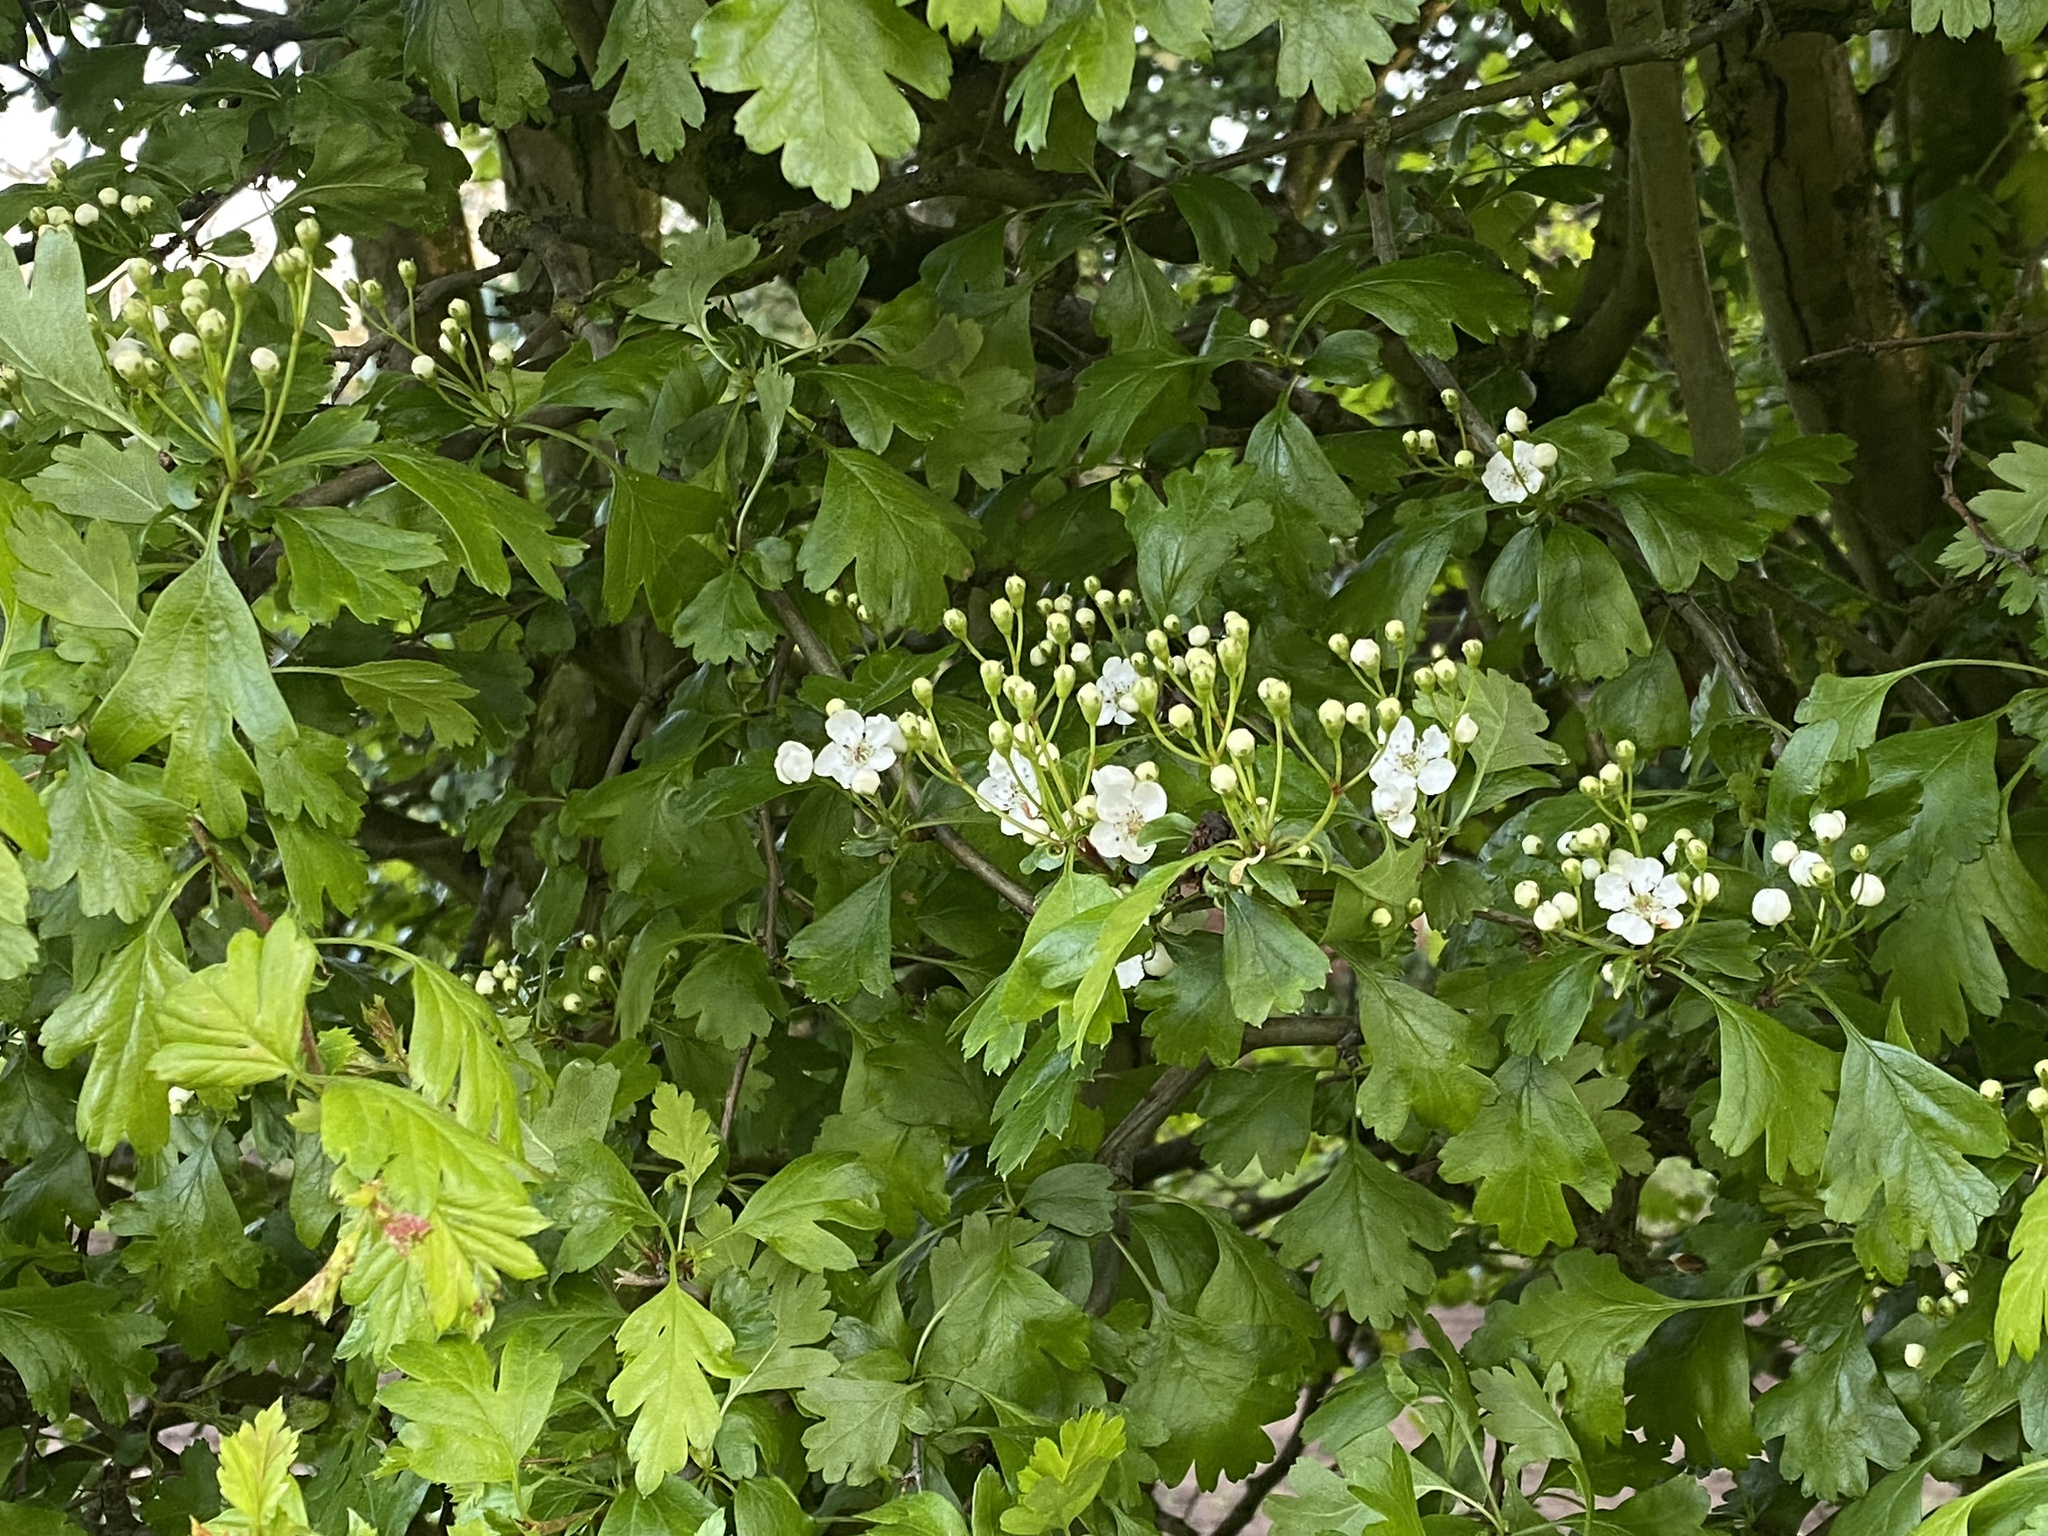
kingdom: Plantae
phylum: Tracheophyta
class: Magnoliopsida
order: Rosales
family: Rosaceae
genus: Crataegus
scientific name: Crataegus monogyna
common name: Hawthorn
